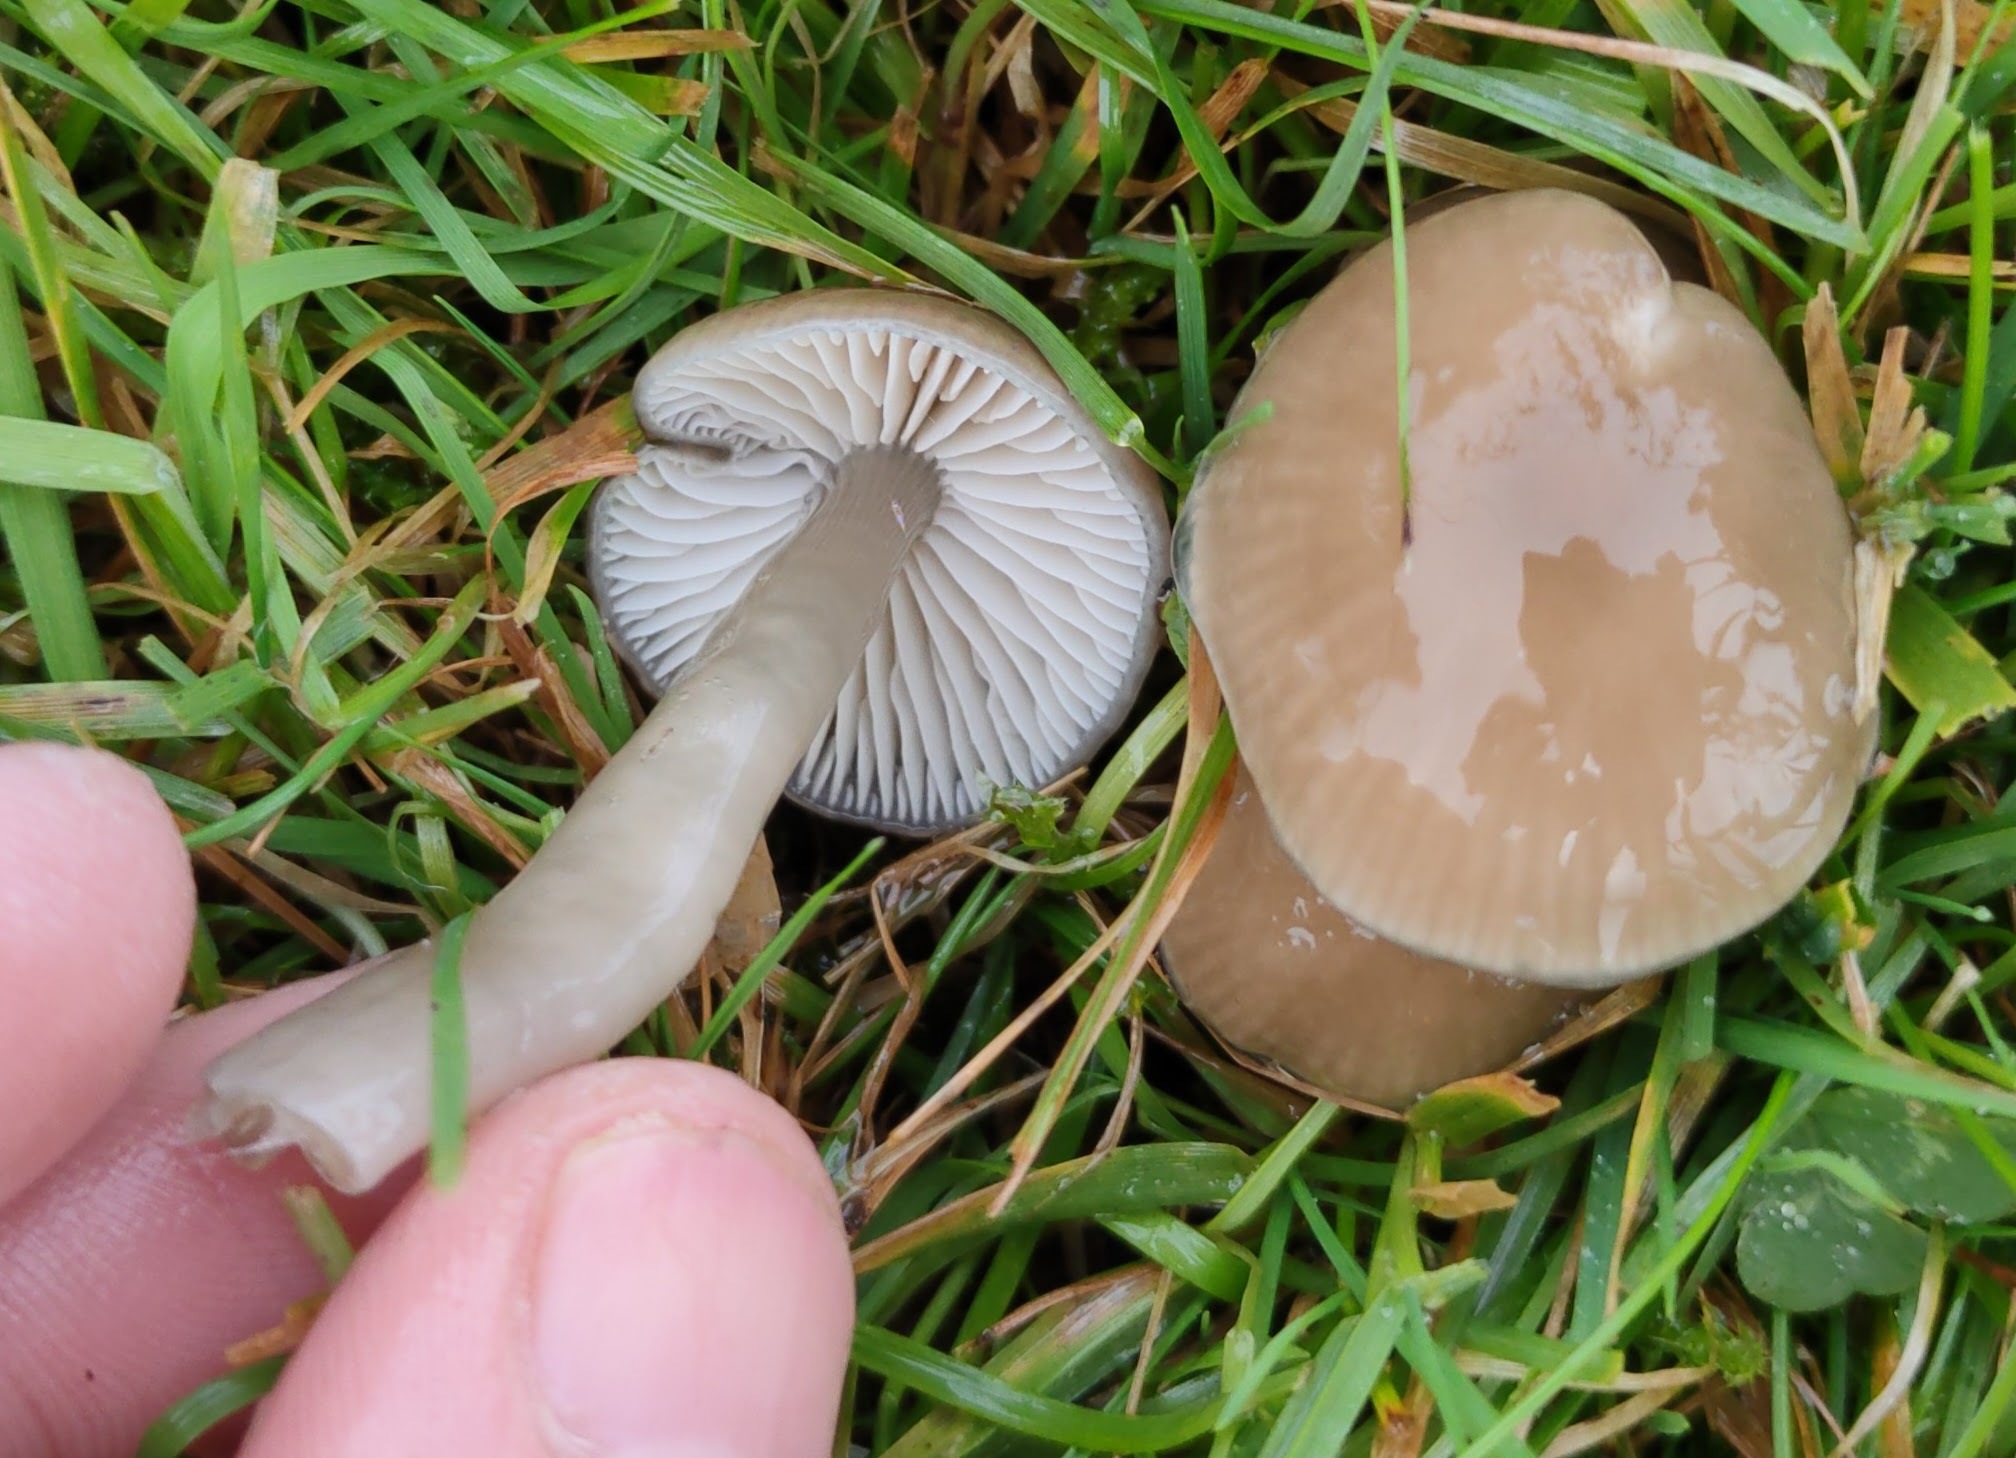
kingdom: Fungi
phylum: Basidiomycota
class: Agaricomycetes
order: Agaricales
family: Hygrophoraceae
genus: Gliophorus
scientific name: Gliophorus irrigatus
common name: Slimy waxcap
